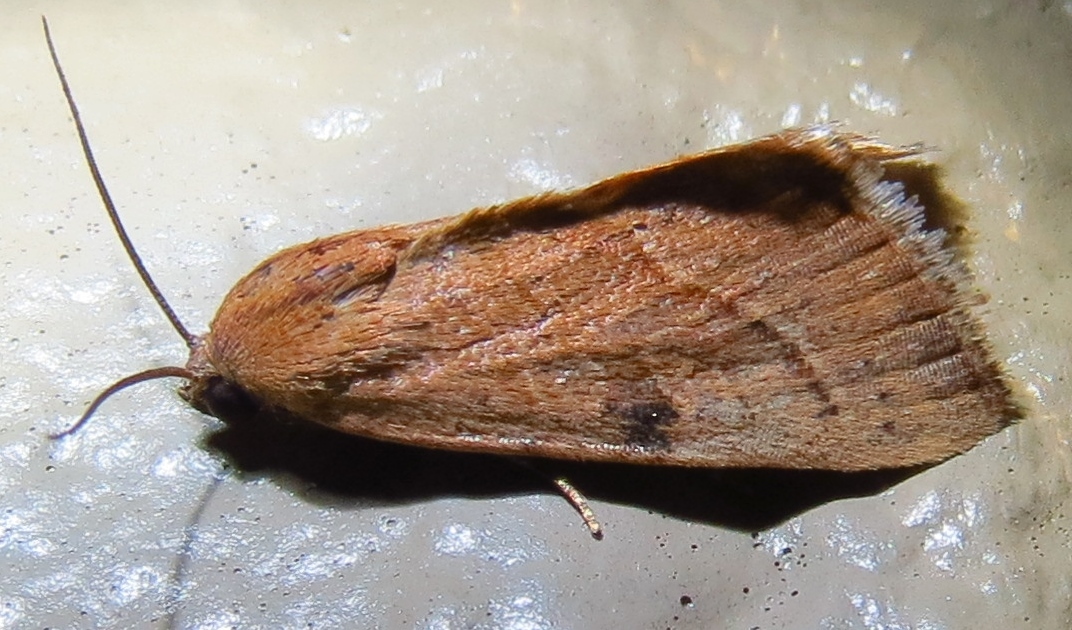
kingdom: Animalia
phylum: Arthropoda
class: Insecta
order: Lepidoptera
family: Noctuidae
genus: Galgula
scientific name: Galgula partita
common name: Wedgeling
